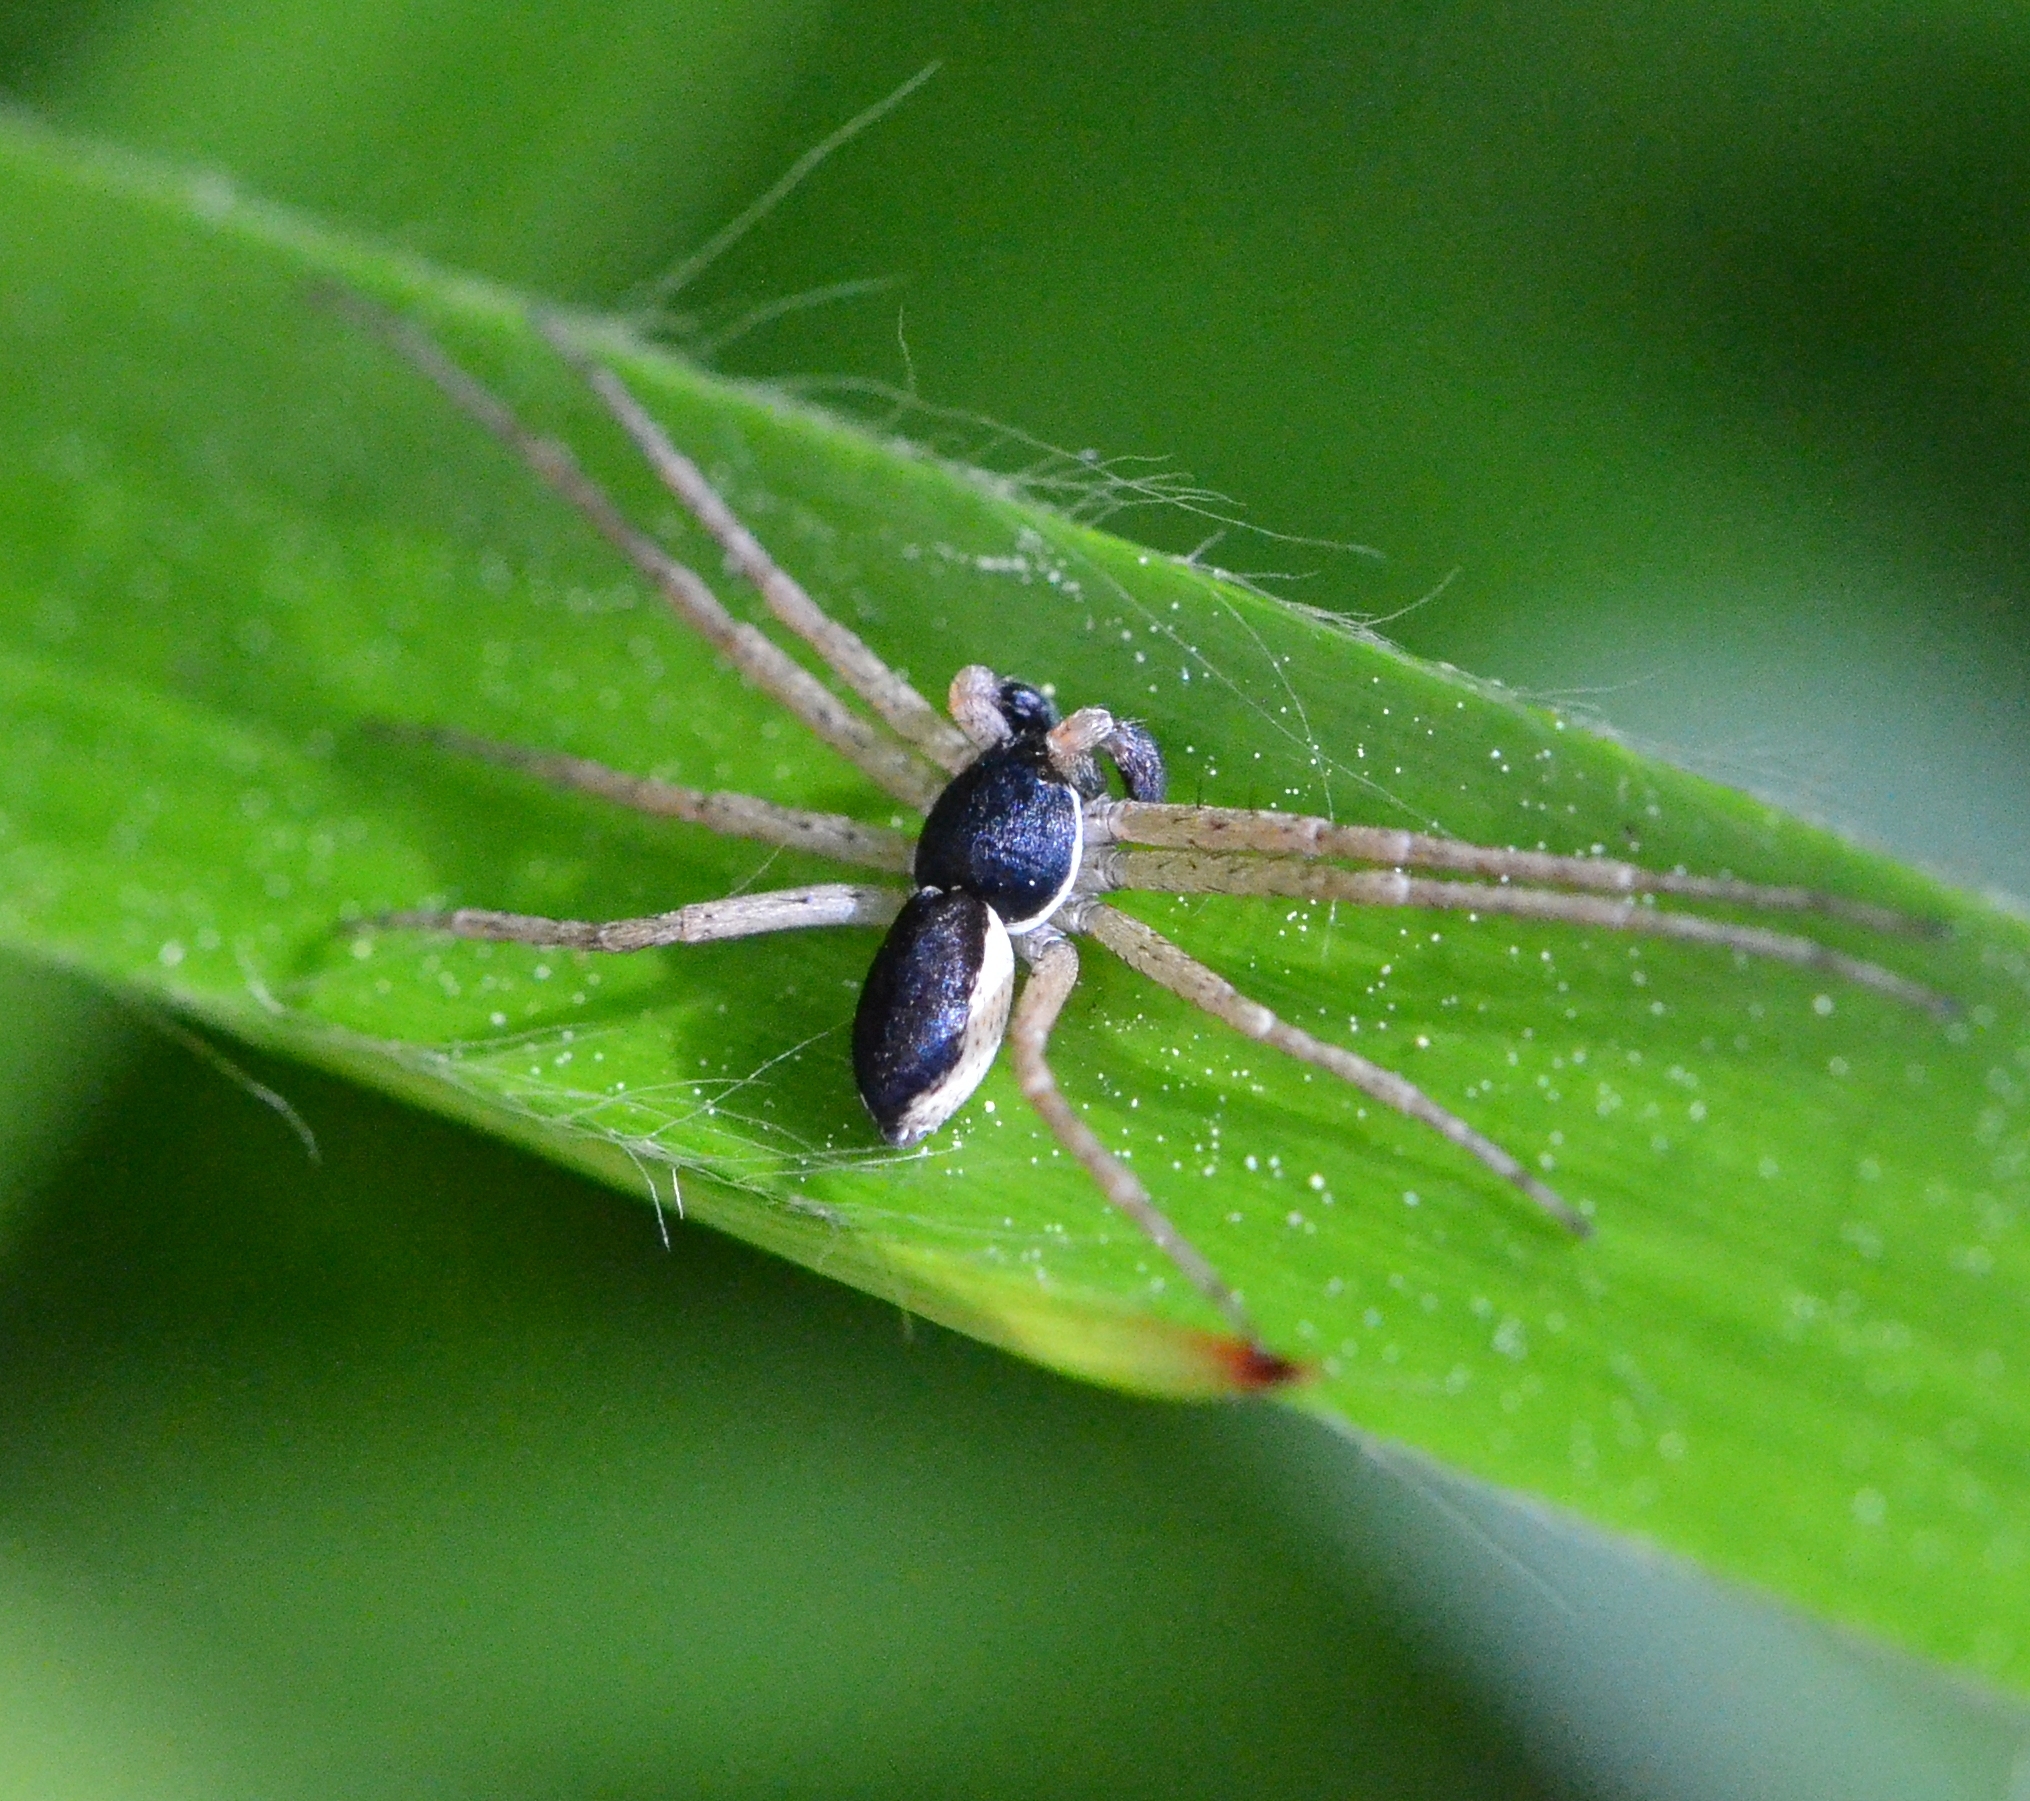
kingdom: Animalia
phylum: Arthropoda
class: Arachnida
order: Araneae
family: Philodromidae
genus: Philodromus
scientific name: Philodromus dispar
